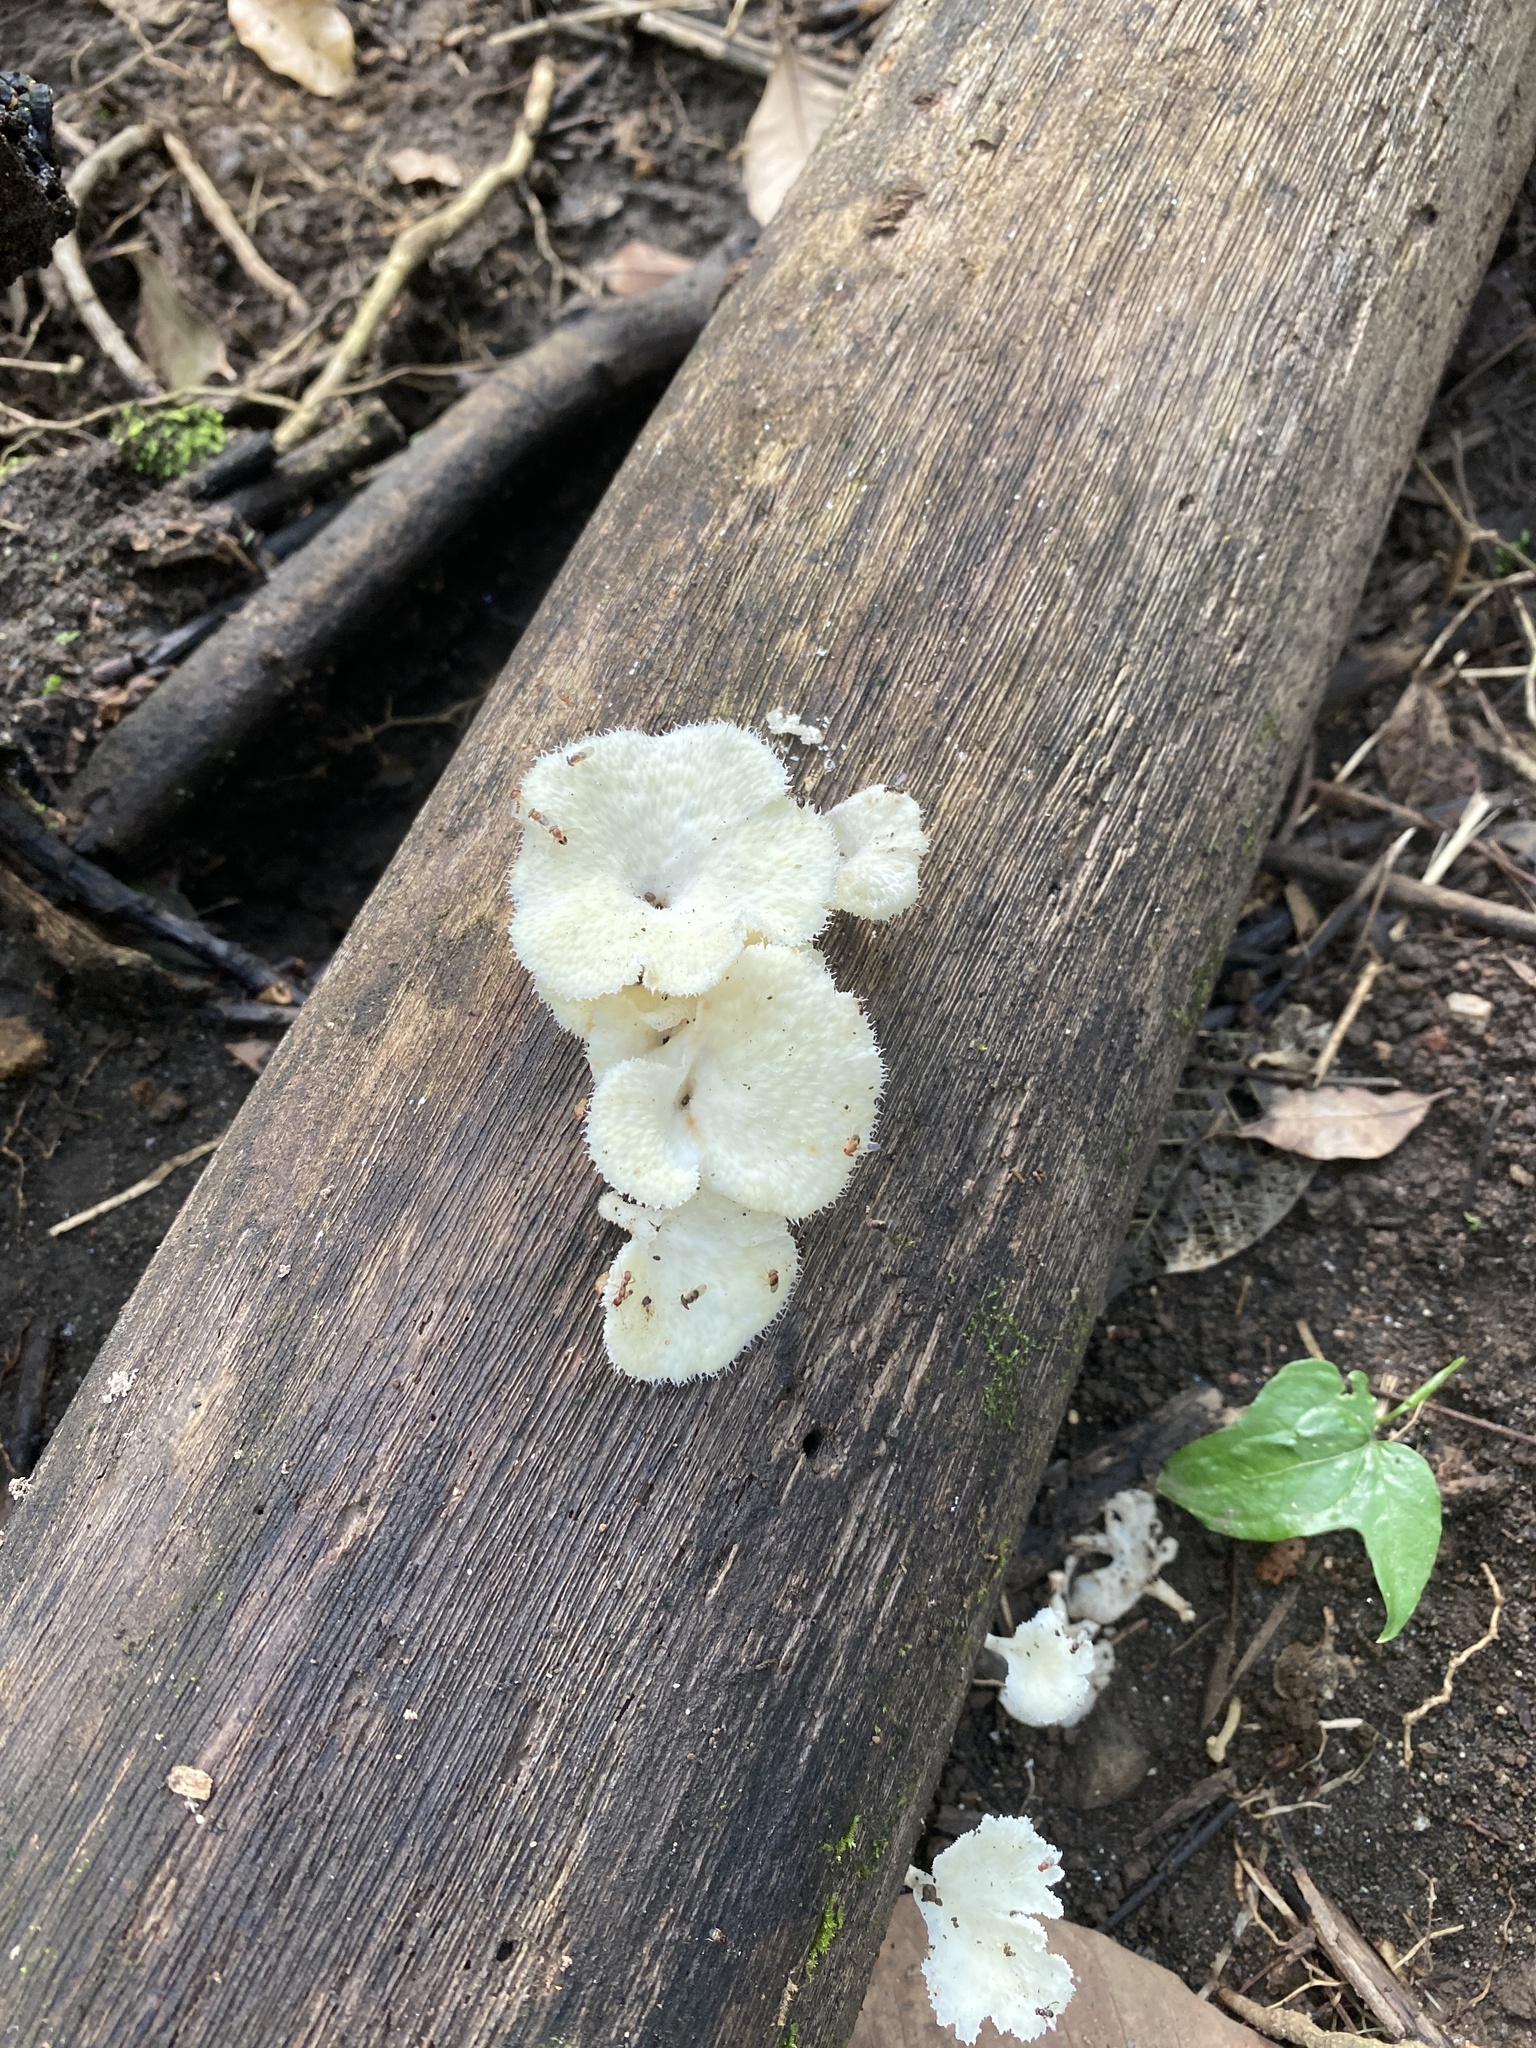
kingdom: Fungi
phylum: Basidiomycota
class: Agaricomycetes
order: Polyporales
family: Polyporaceae
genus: Favolus
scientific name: Favolus tenuiculus
